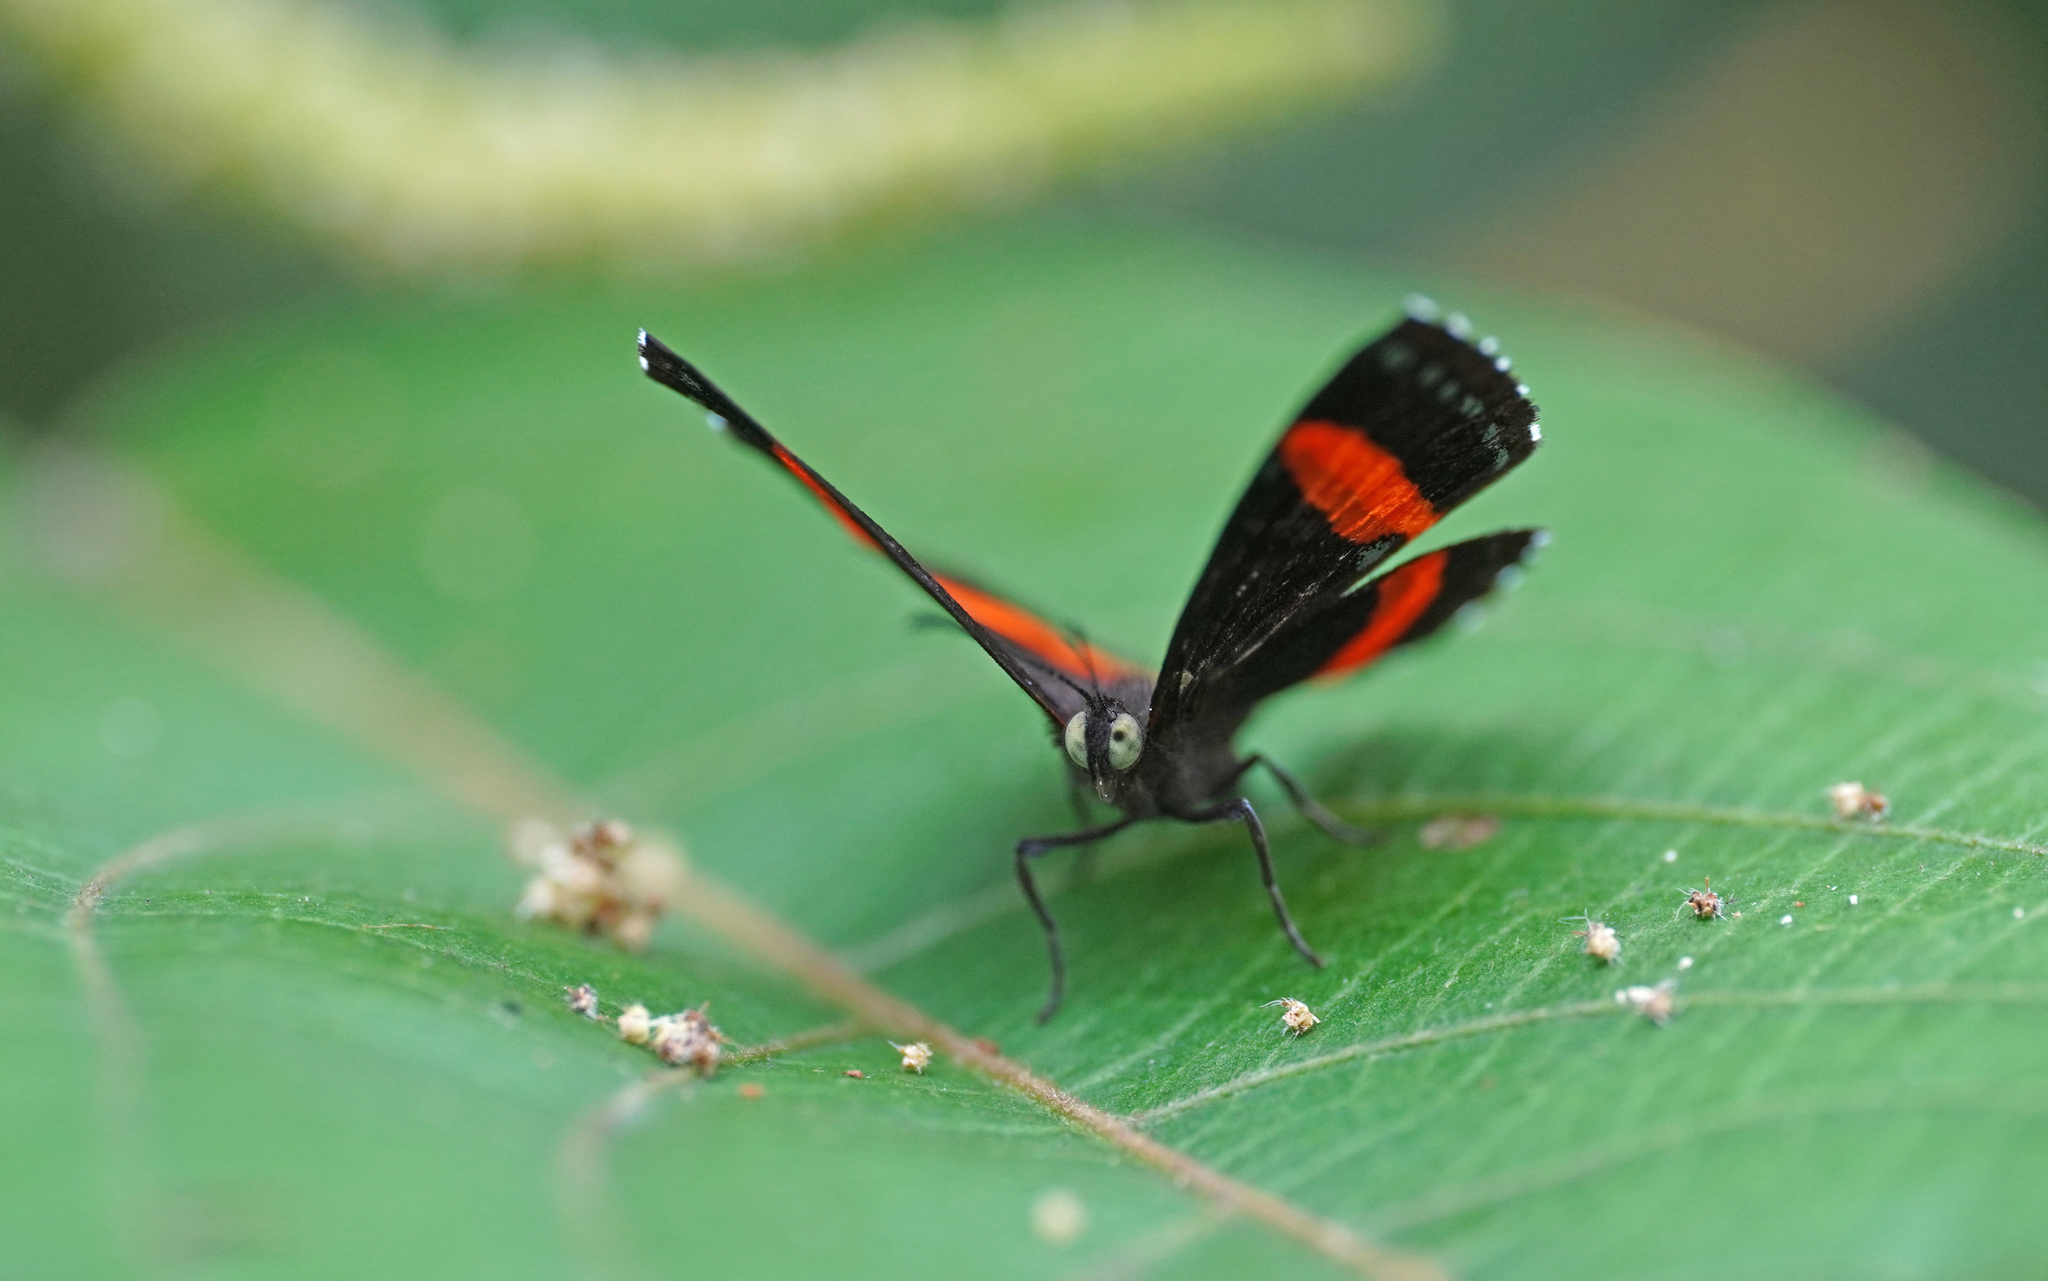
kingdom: Animalia
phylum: Arthropoda
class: Insecta
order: Lepidoptera
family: Riodinidae
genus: Crocozona
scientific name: Crocozona coecias
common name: Orange-banded gem
